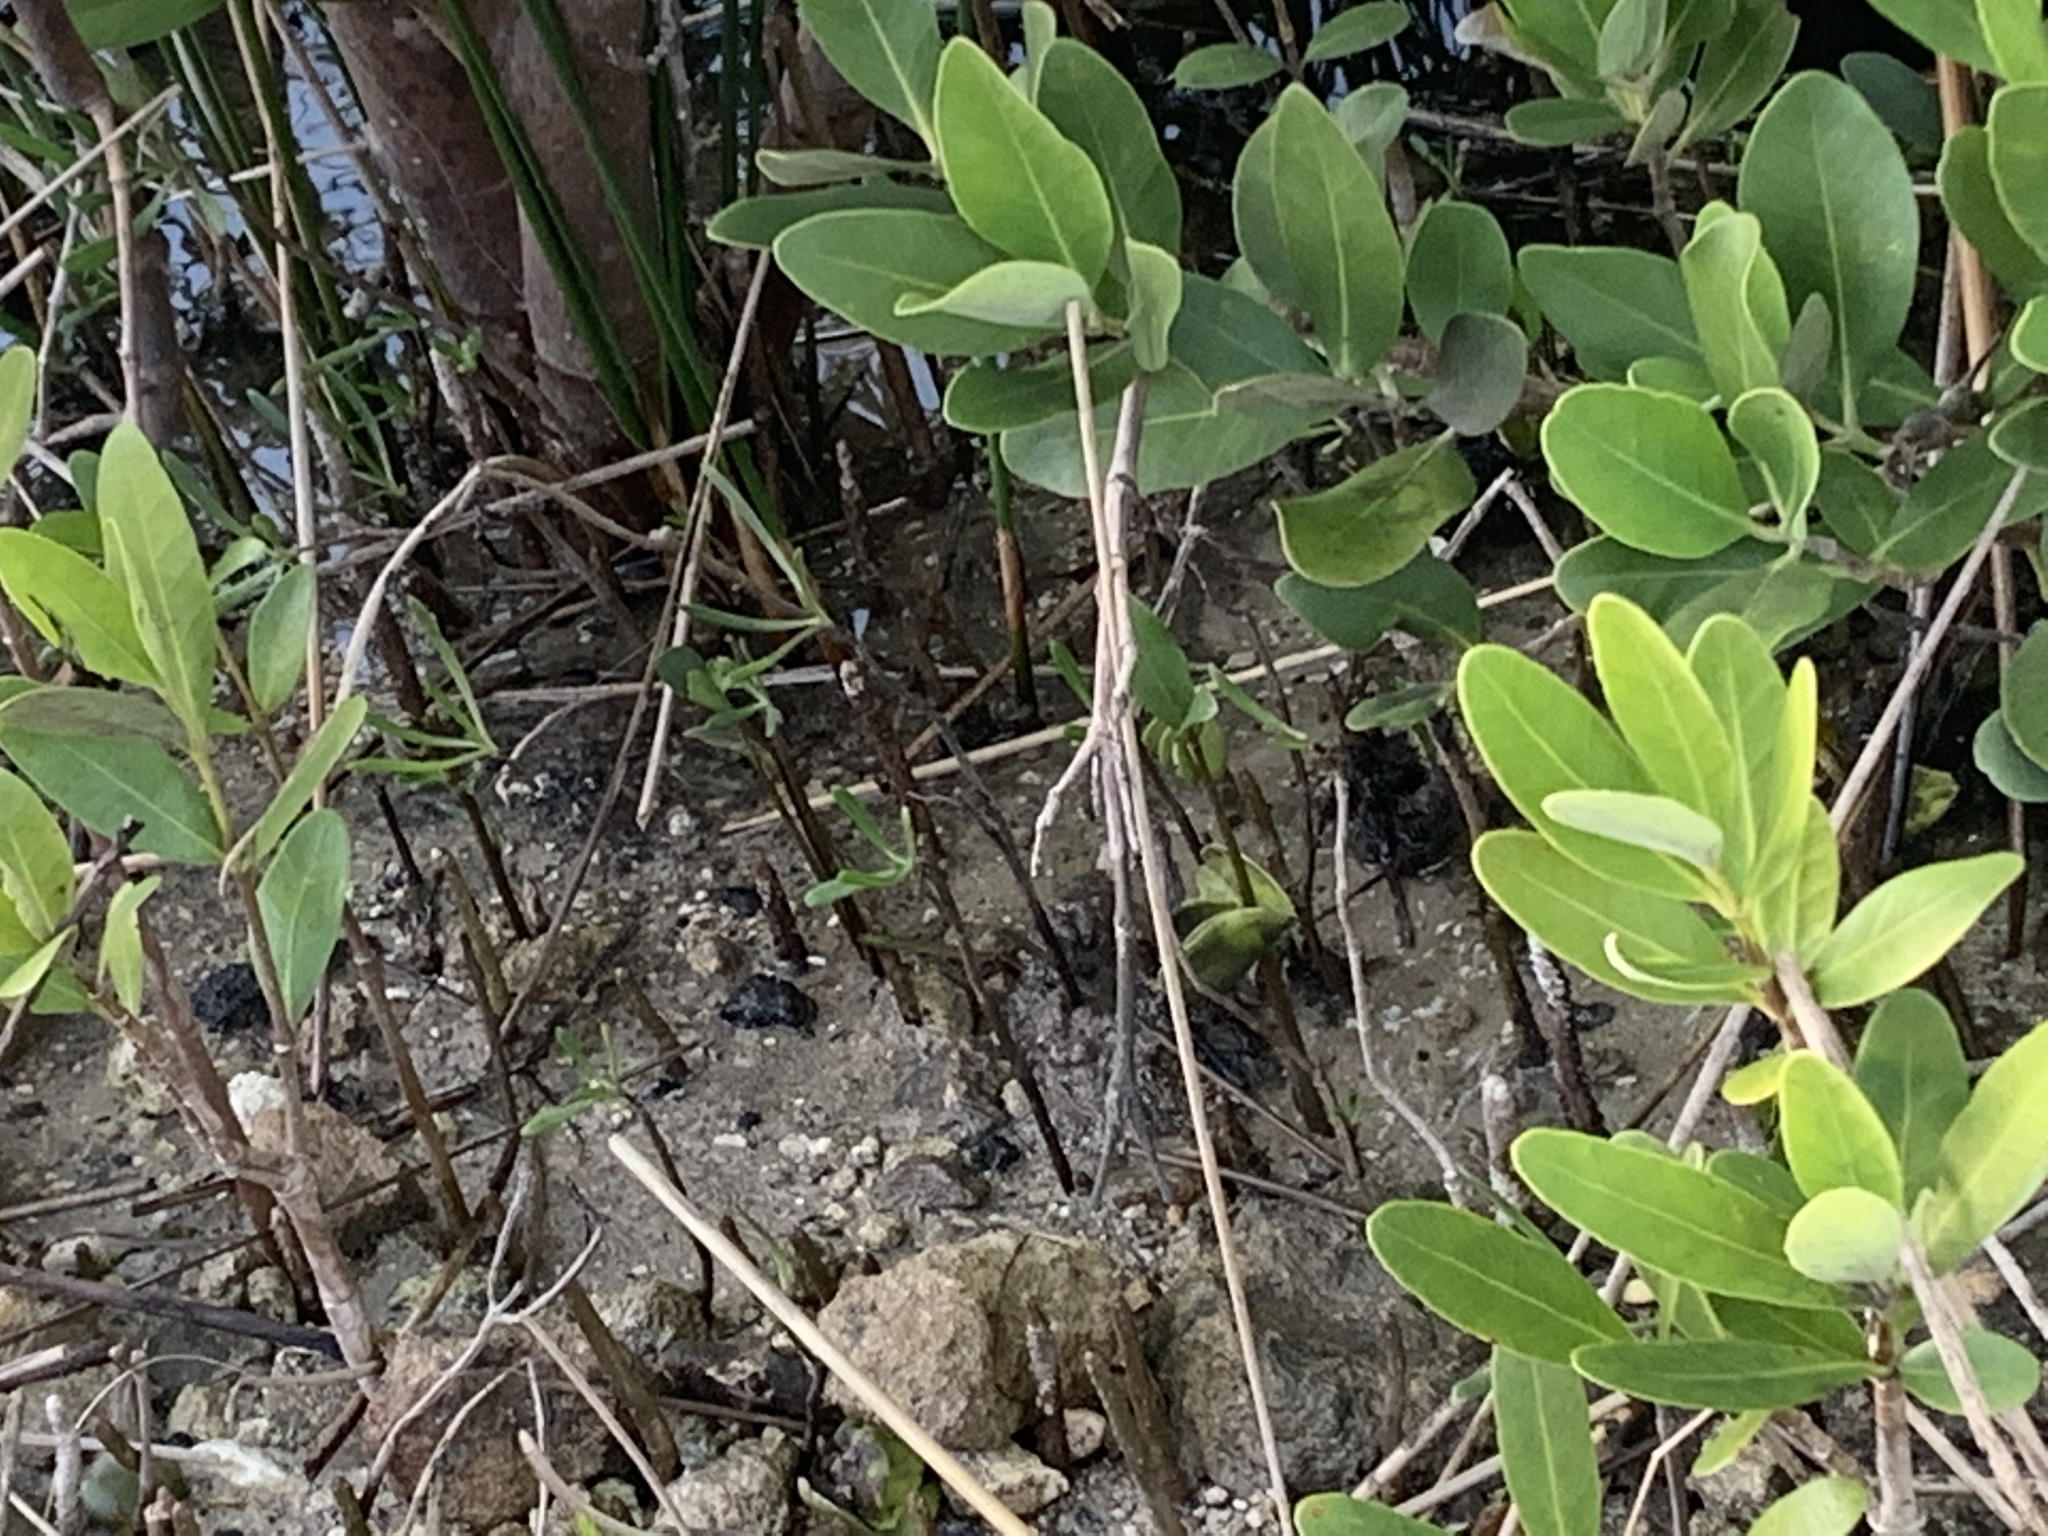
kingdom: Plantae
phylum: Tracheophyta
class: Magnoliopsida
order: Lamiales
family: Acanthaceae
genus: Avicennia
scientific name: Avicennia germinans
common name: Black mangrove
